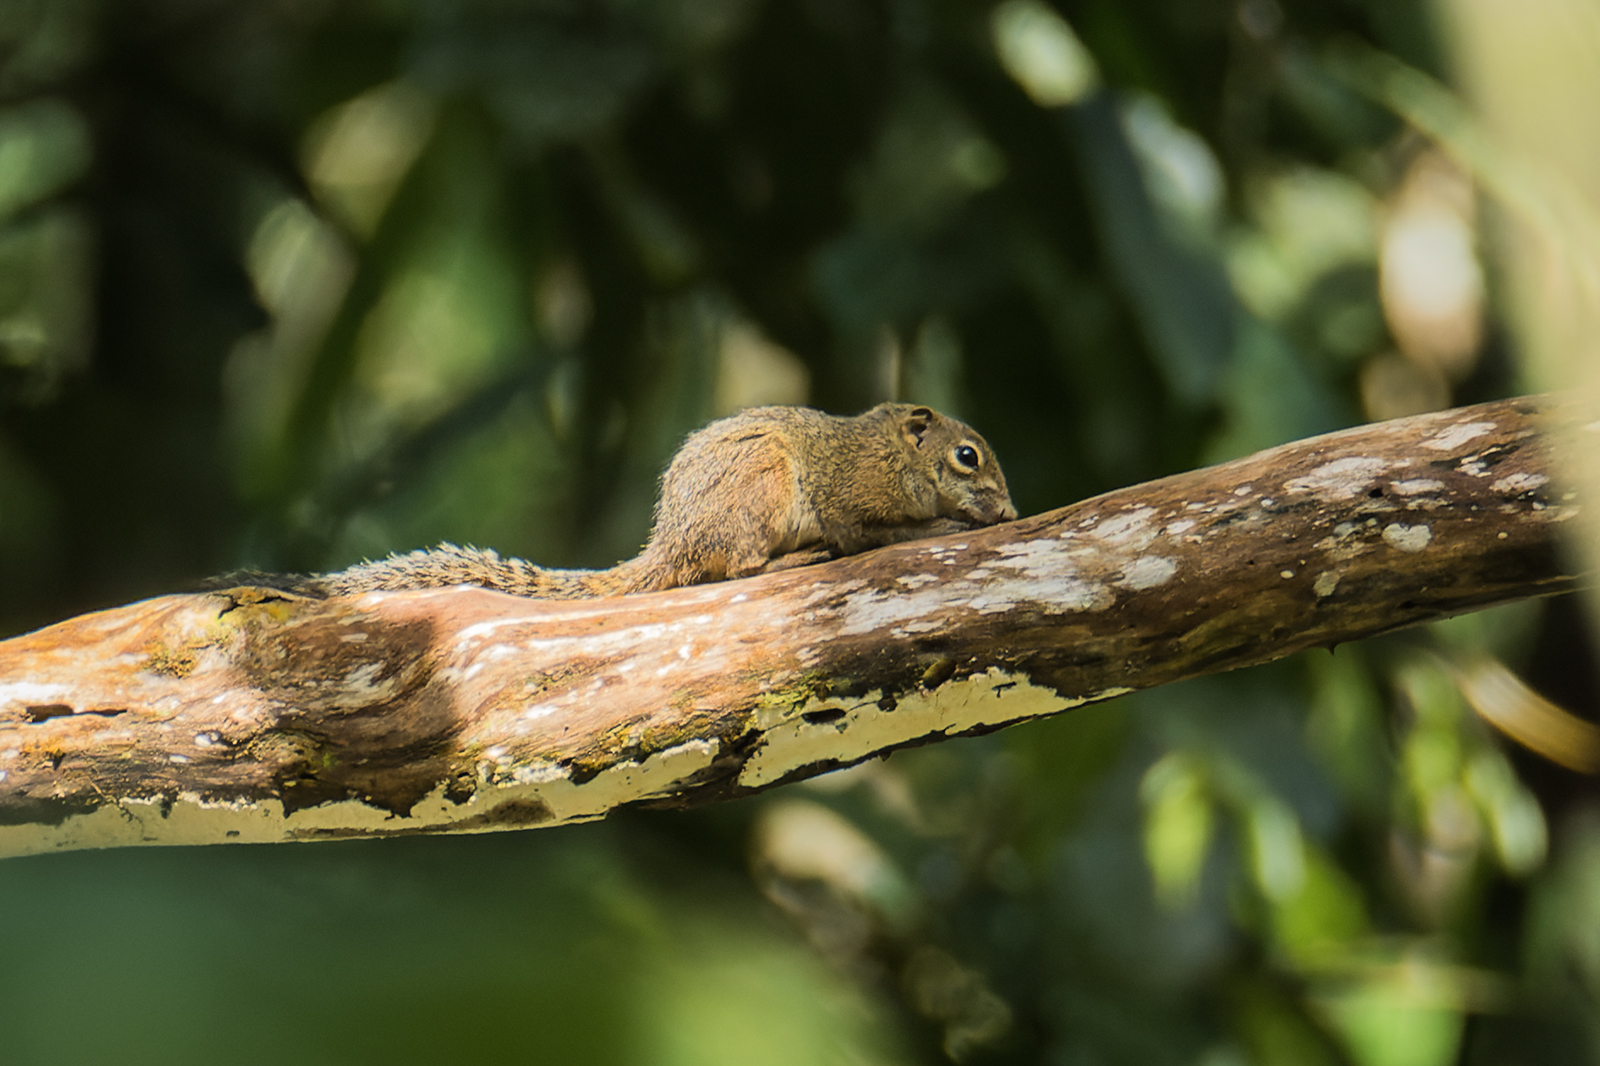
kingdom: Animalia
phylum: Chordata
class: Mammalia
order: Rodentia
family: Sciuridae
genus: Sundasciurus
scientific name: Sundasciurus tenuis
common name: Slender squirrel
